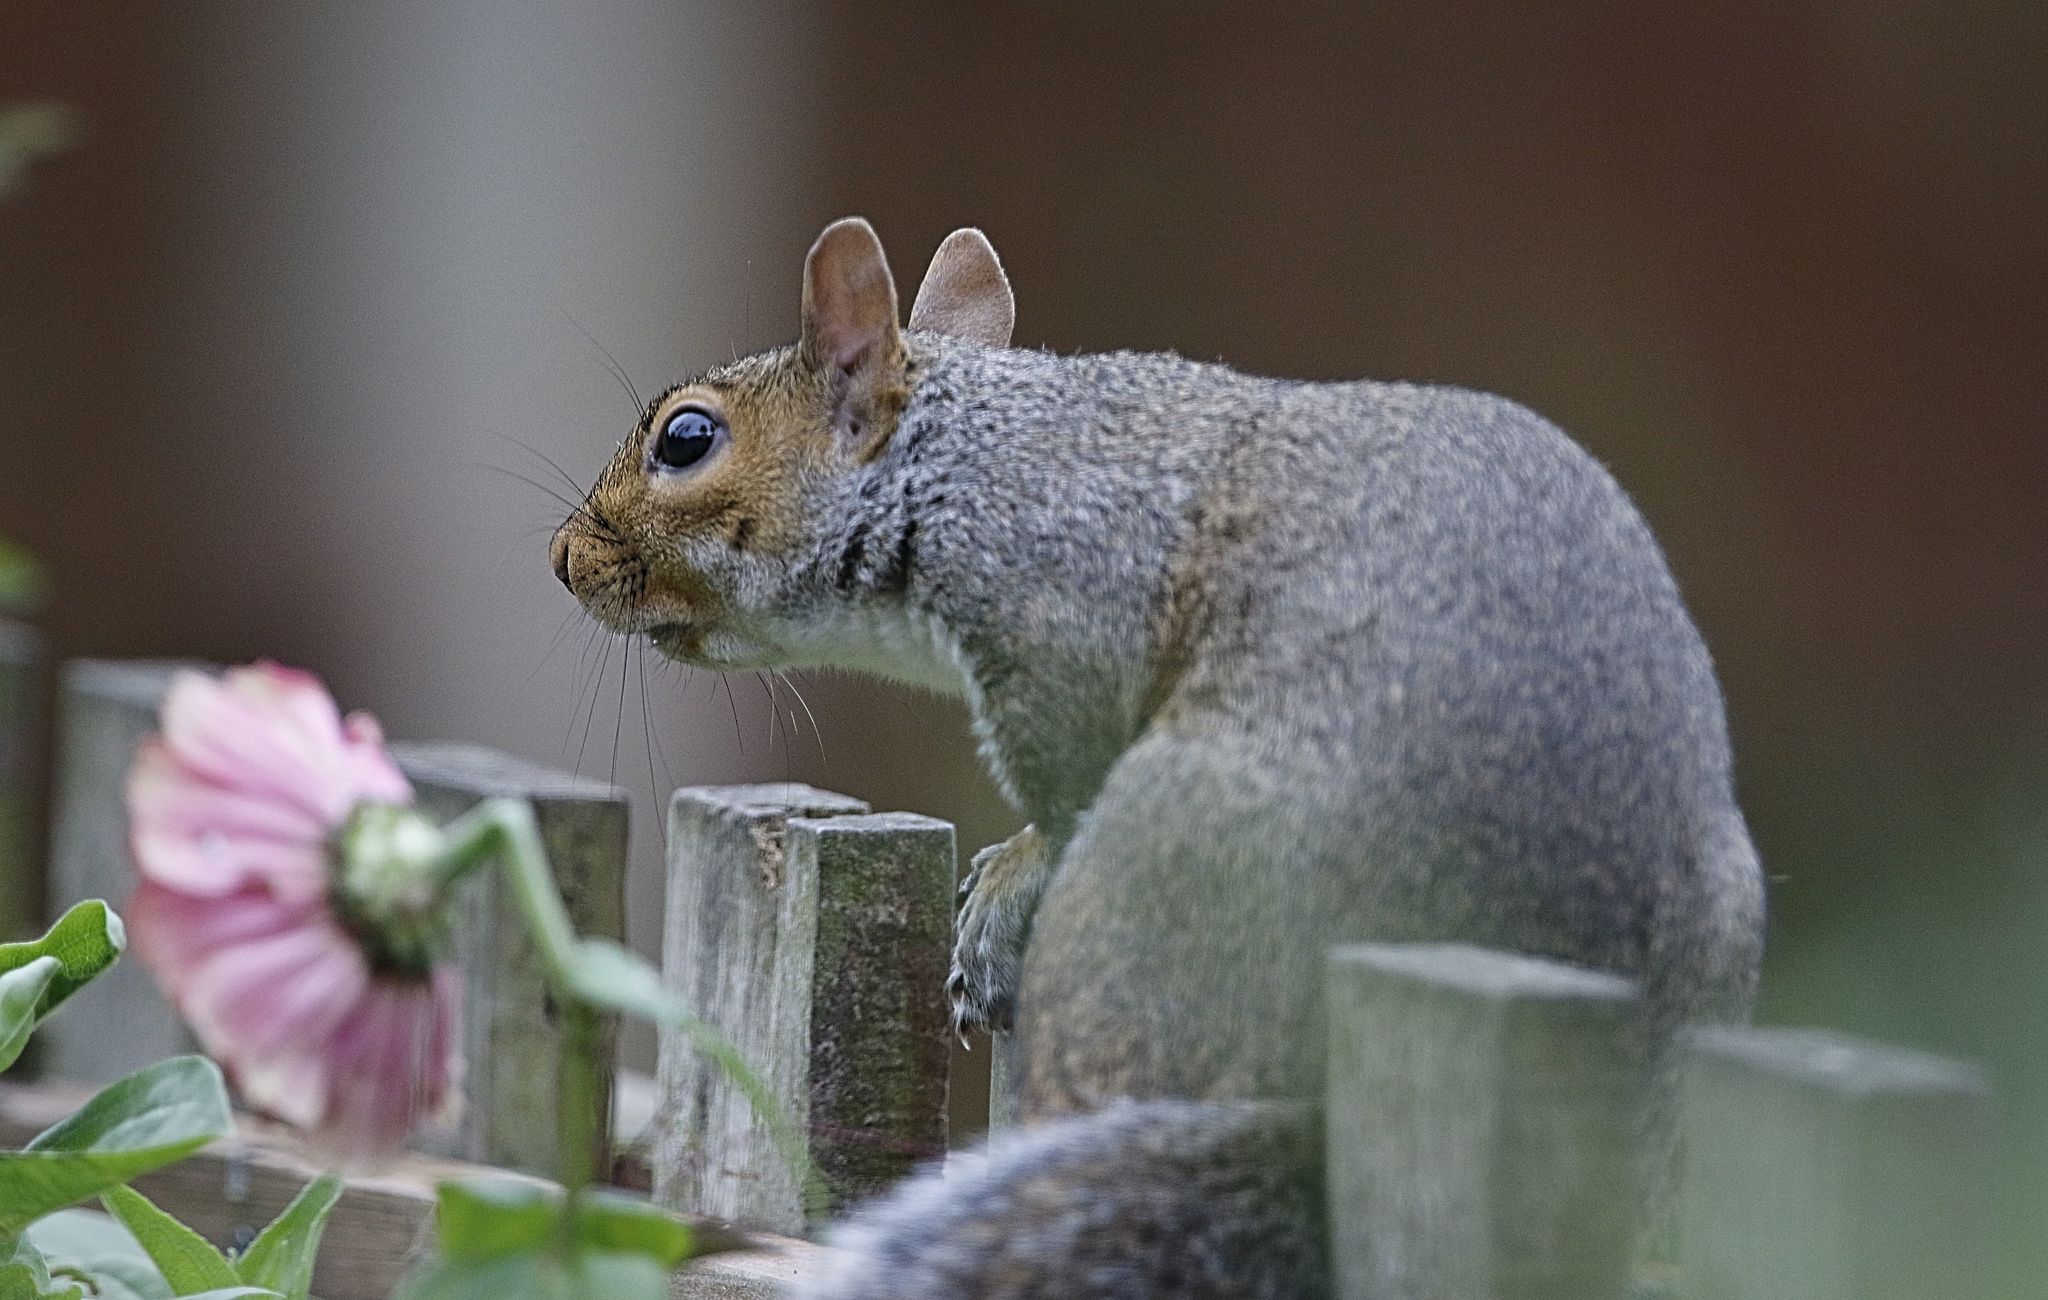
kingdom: Animalia
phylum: Chordata
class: Mammalia
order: Rodentia
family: Sciuridae
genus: Sciurus
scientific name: Sciurus carolinensis
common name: Eastern gray squirrel
